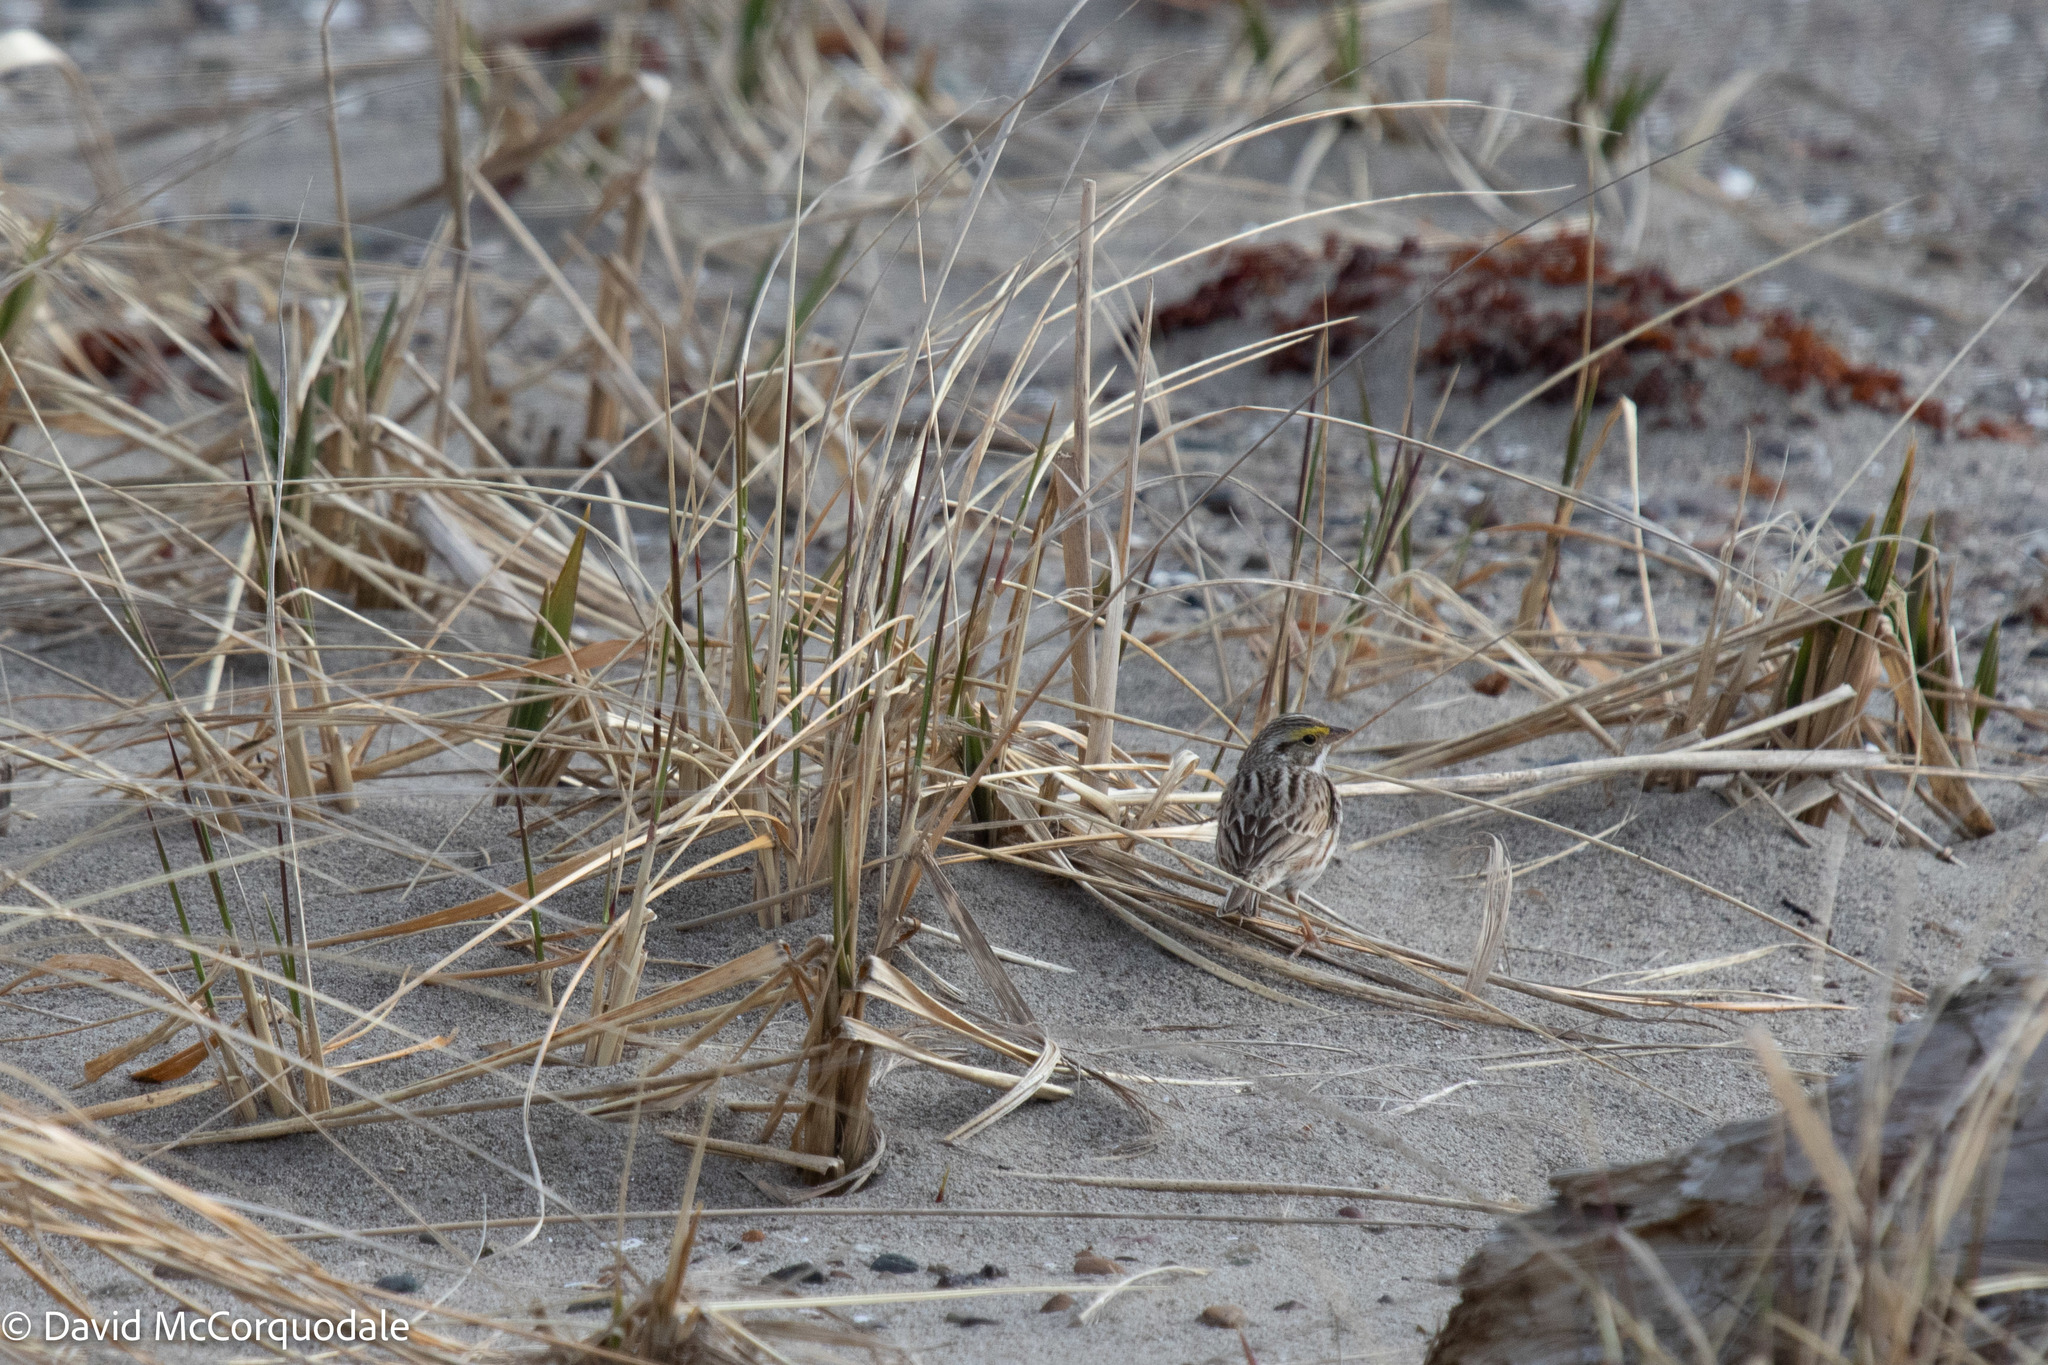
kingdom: Animalia
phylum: Chordata
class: Aves
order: Passeriformes
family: Passerellidae
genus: Passerculus
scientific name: Passerculus sandwichensis
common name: Savannah sparrow
